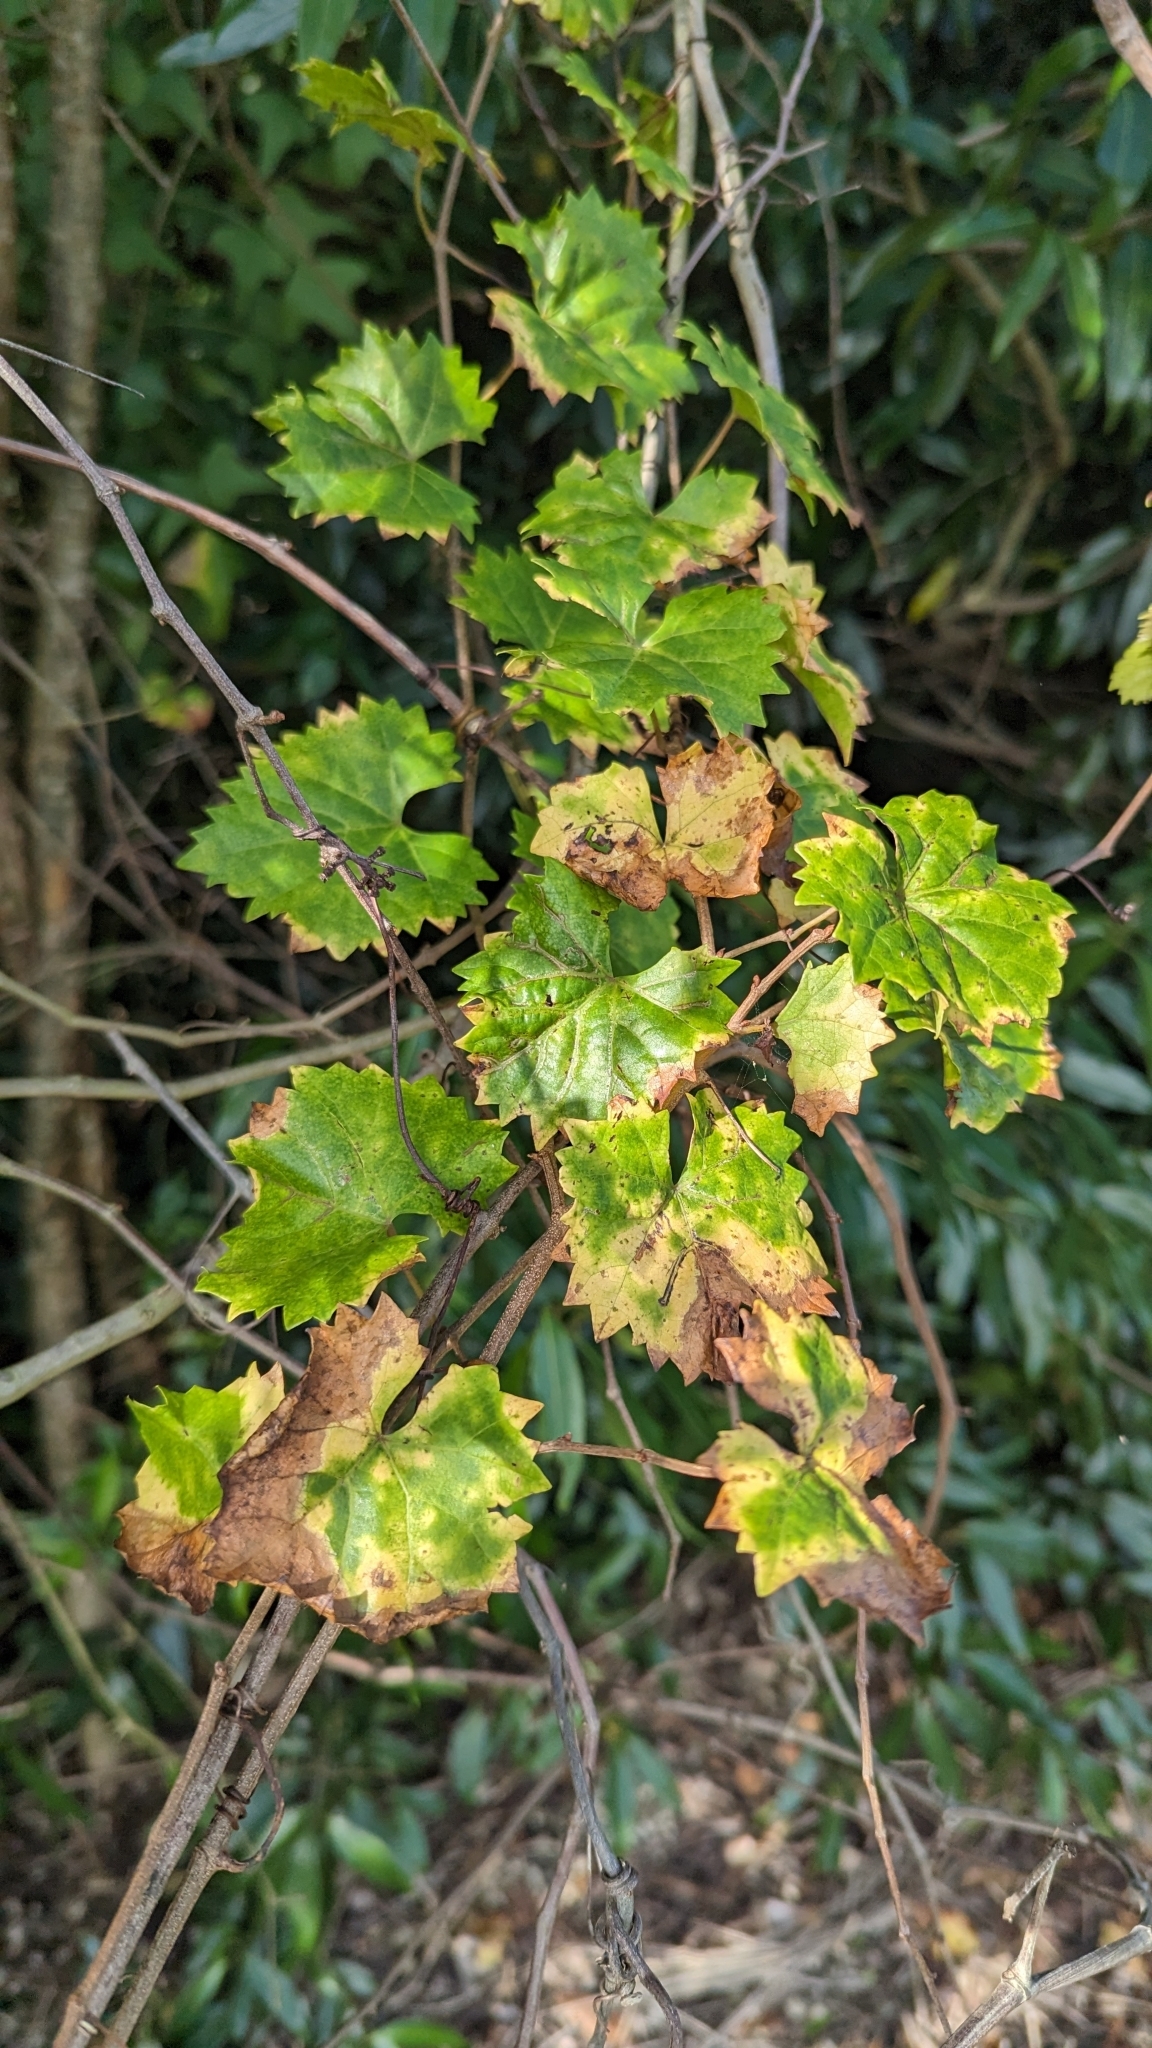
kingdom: Plantae
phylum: Tracheophyta
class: Magnoliopsida
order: Vitales
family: Vitaceae
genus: Vitis
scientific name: Vitis rotundifolia
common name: Muscadine grape
